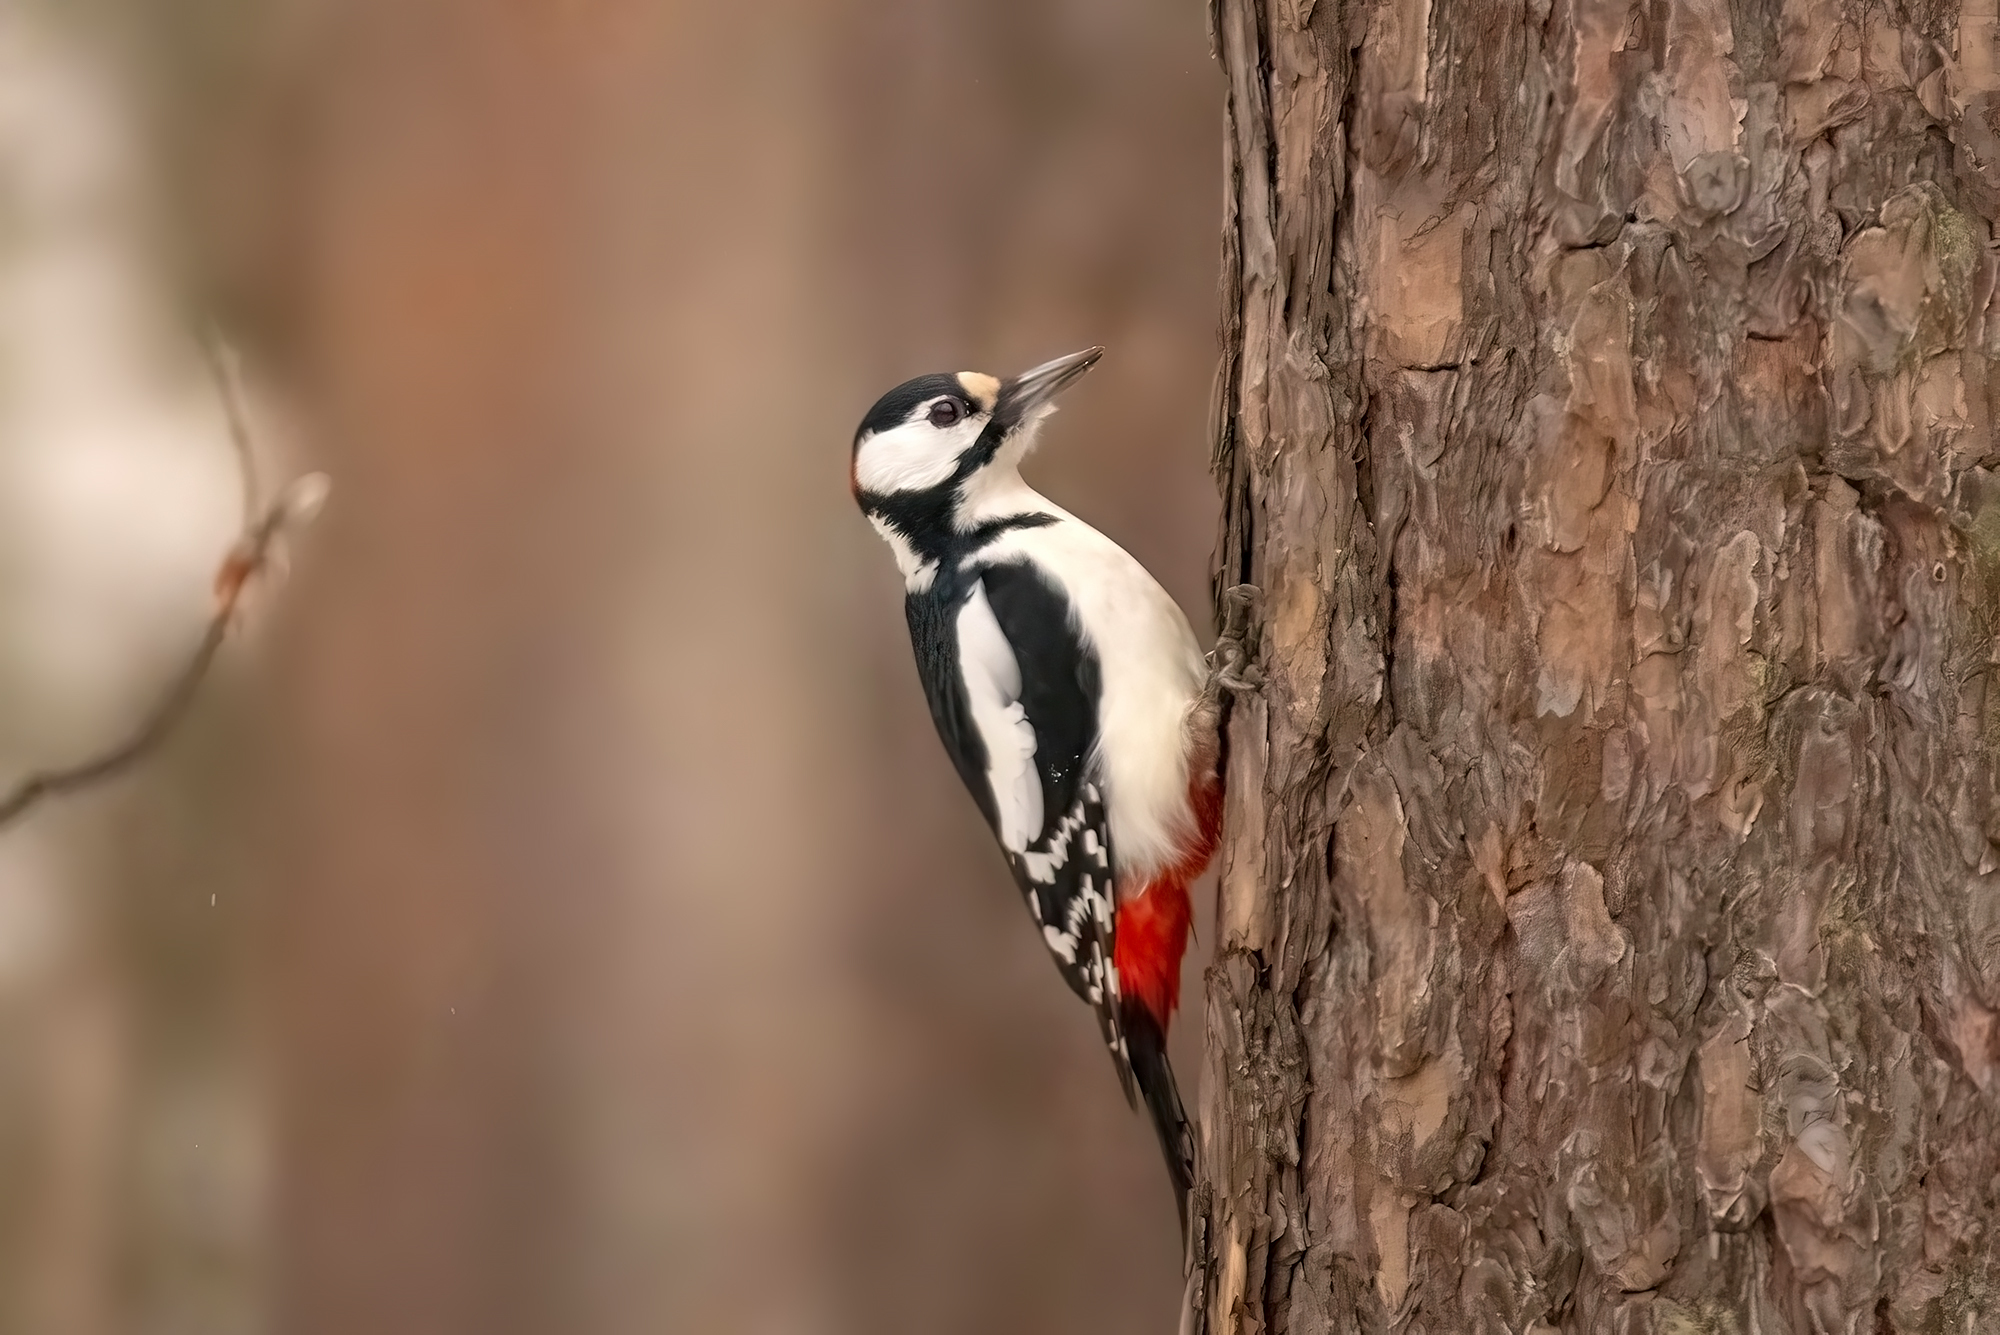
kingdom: Animalia
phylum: Chordata
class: Aves
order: Piciformes
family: Picidae
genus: Dendrocopos
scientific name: Dendrocopos major
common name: Great spotted woodpecker
